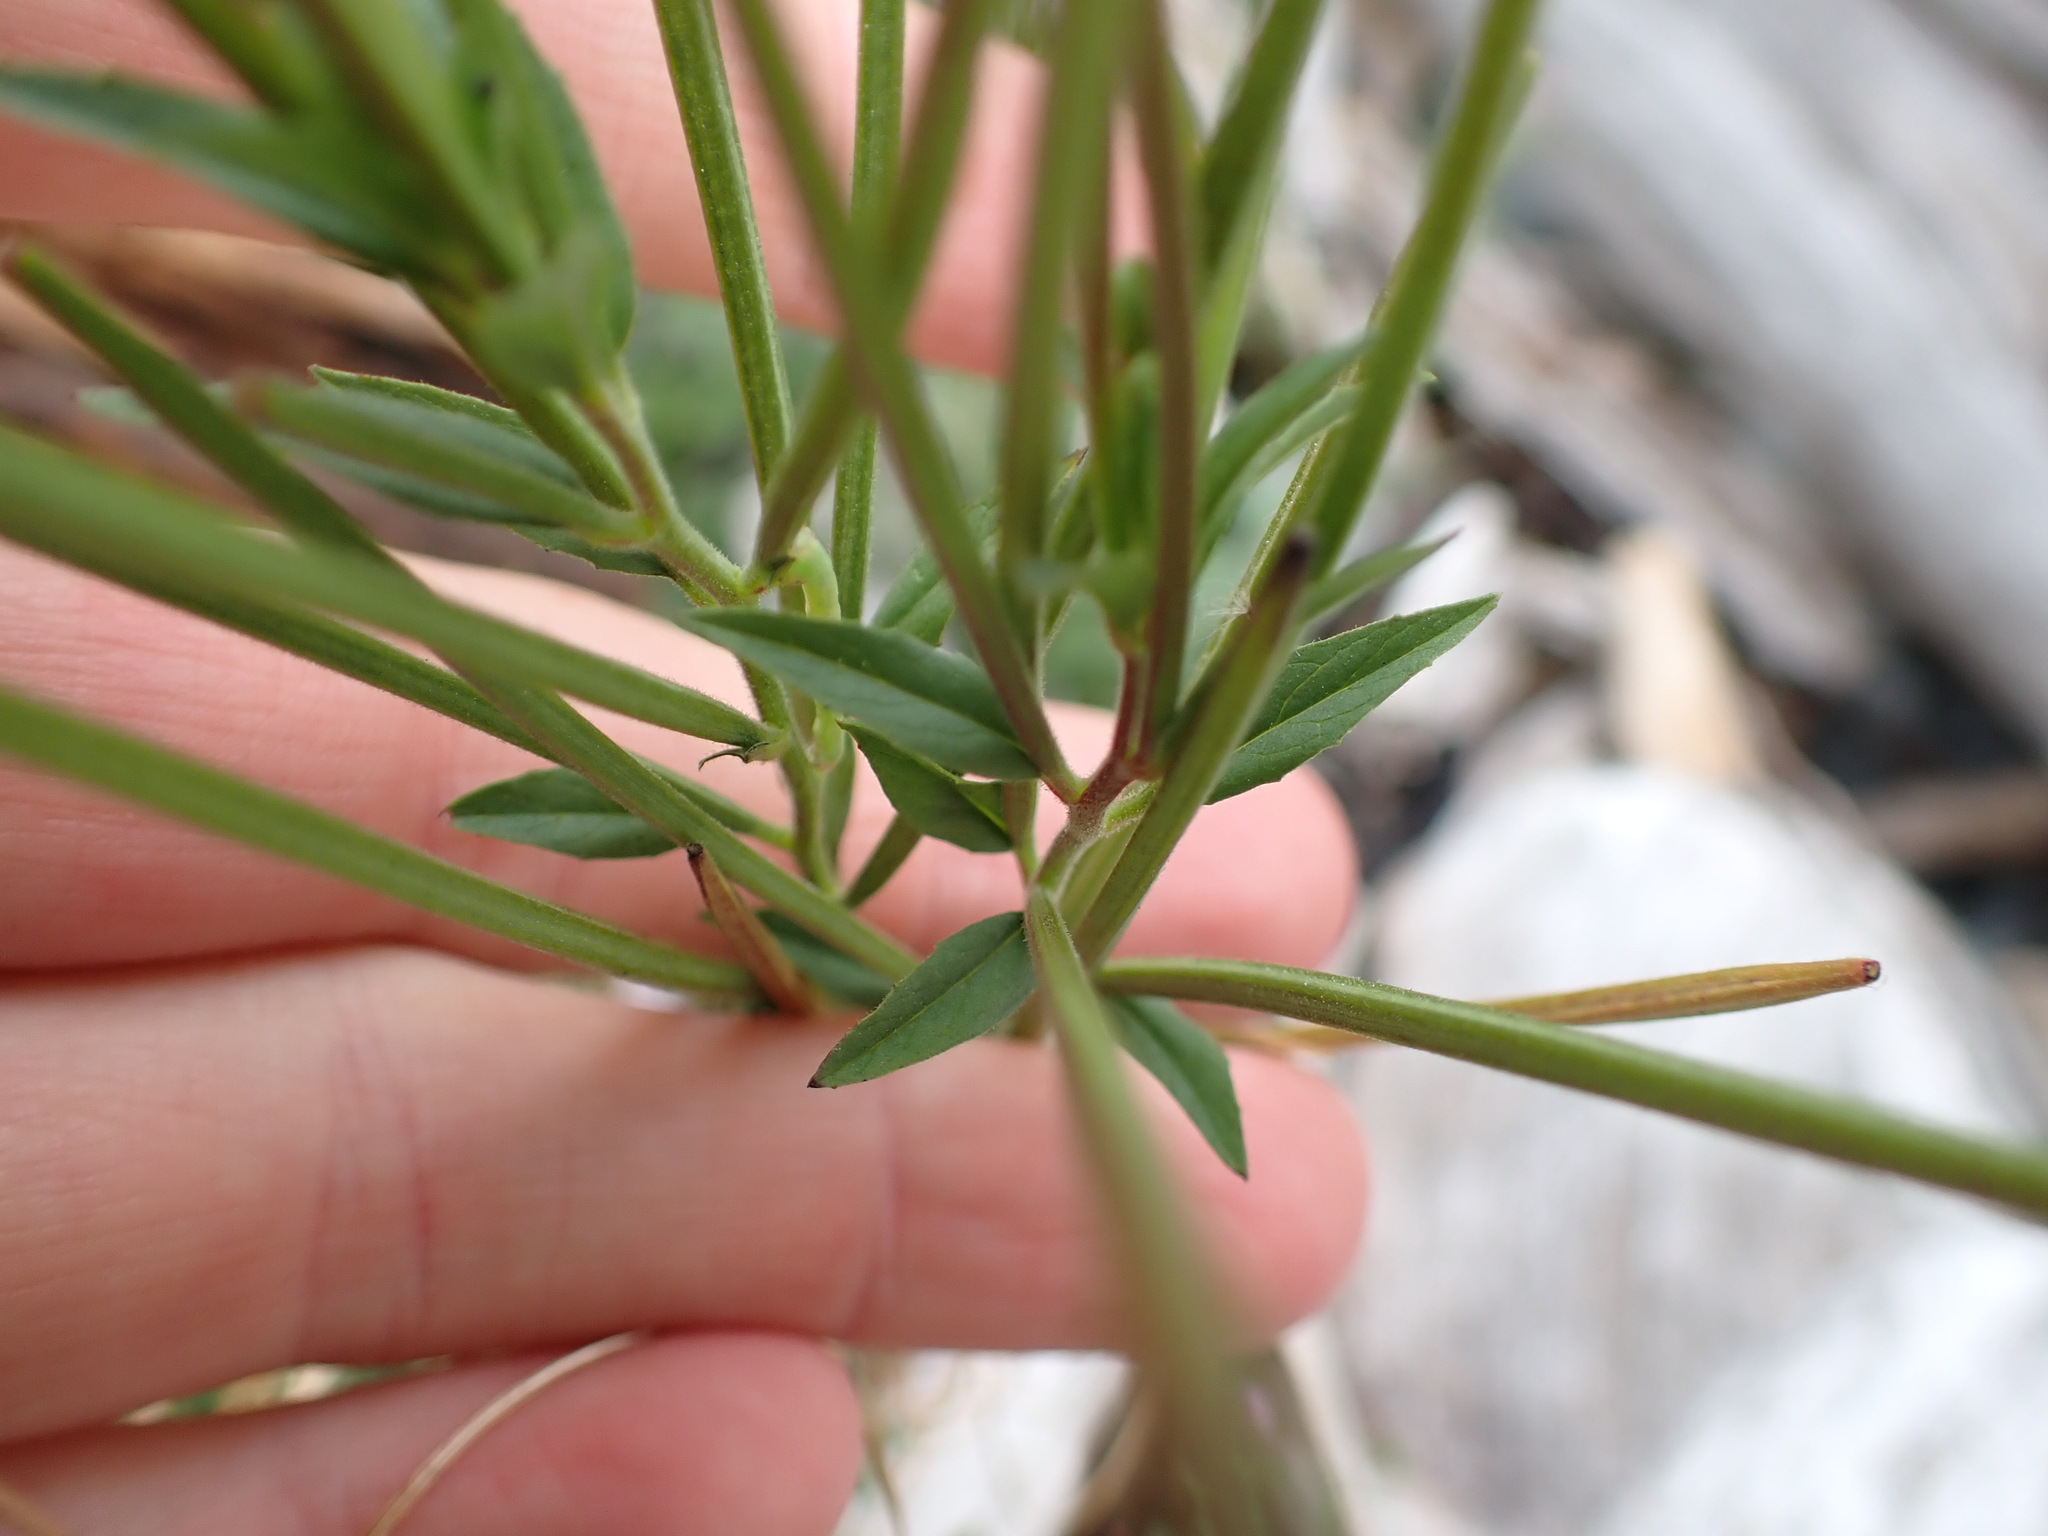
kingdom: Plantae
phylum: Tracheophyta
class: Magnoliopsida
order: Myrtales
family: Onagraceae
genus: Epilobium
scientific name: Epilobium ciliatum
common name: American willowherb
